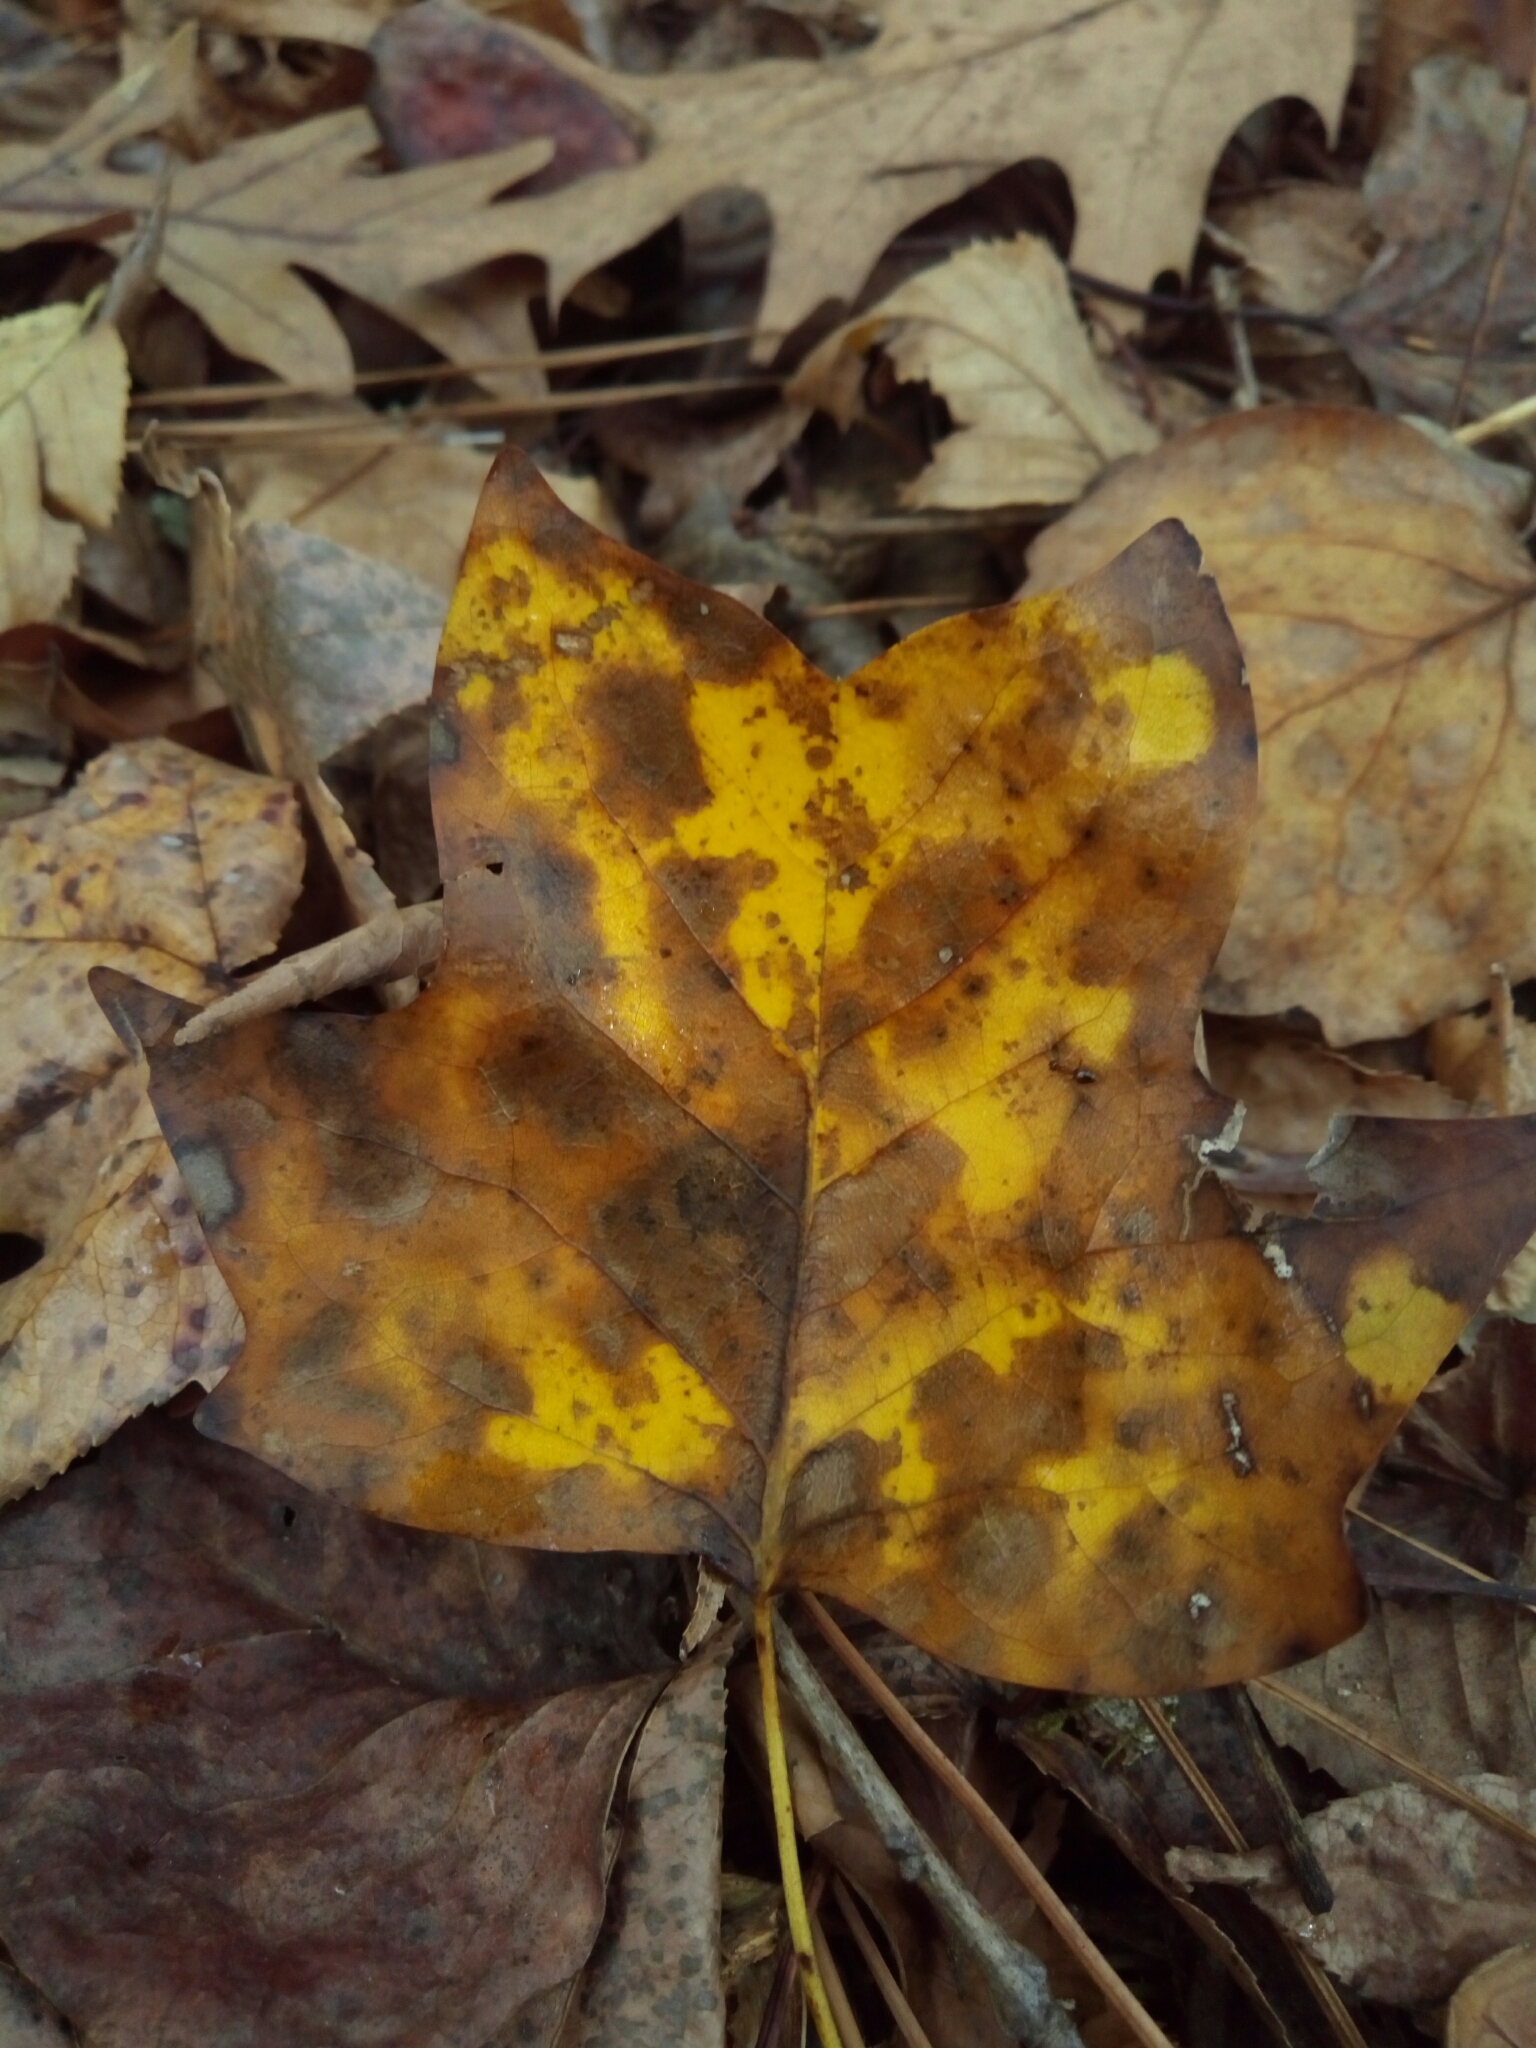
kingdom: Plantae
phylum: Tracheophyta
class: Magnoliopsida
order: Magnoliales
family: Magnoliaceae
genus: Liriodendron
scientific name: Liriodendron tulipifera
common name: Tulip tree
